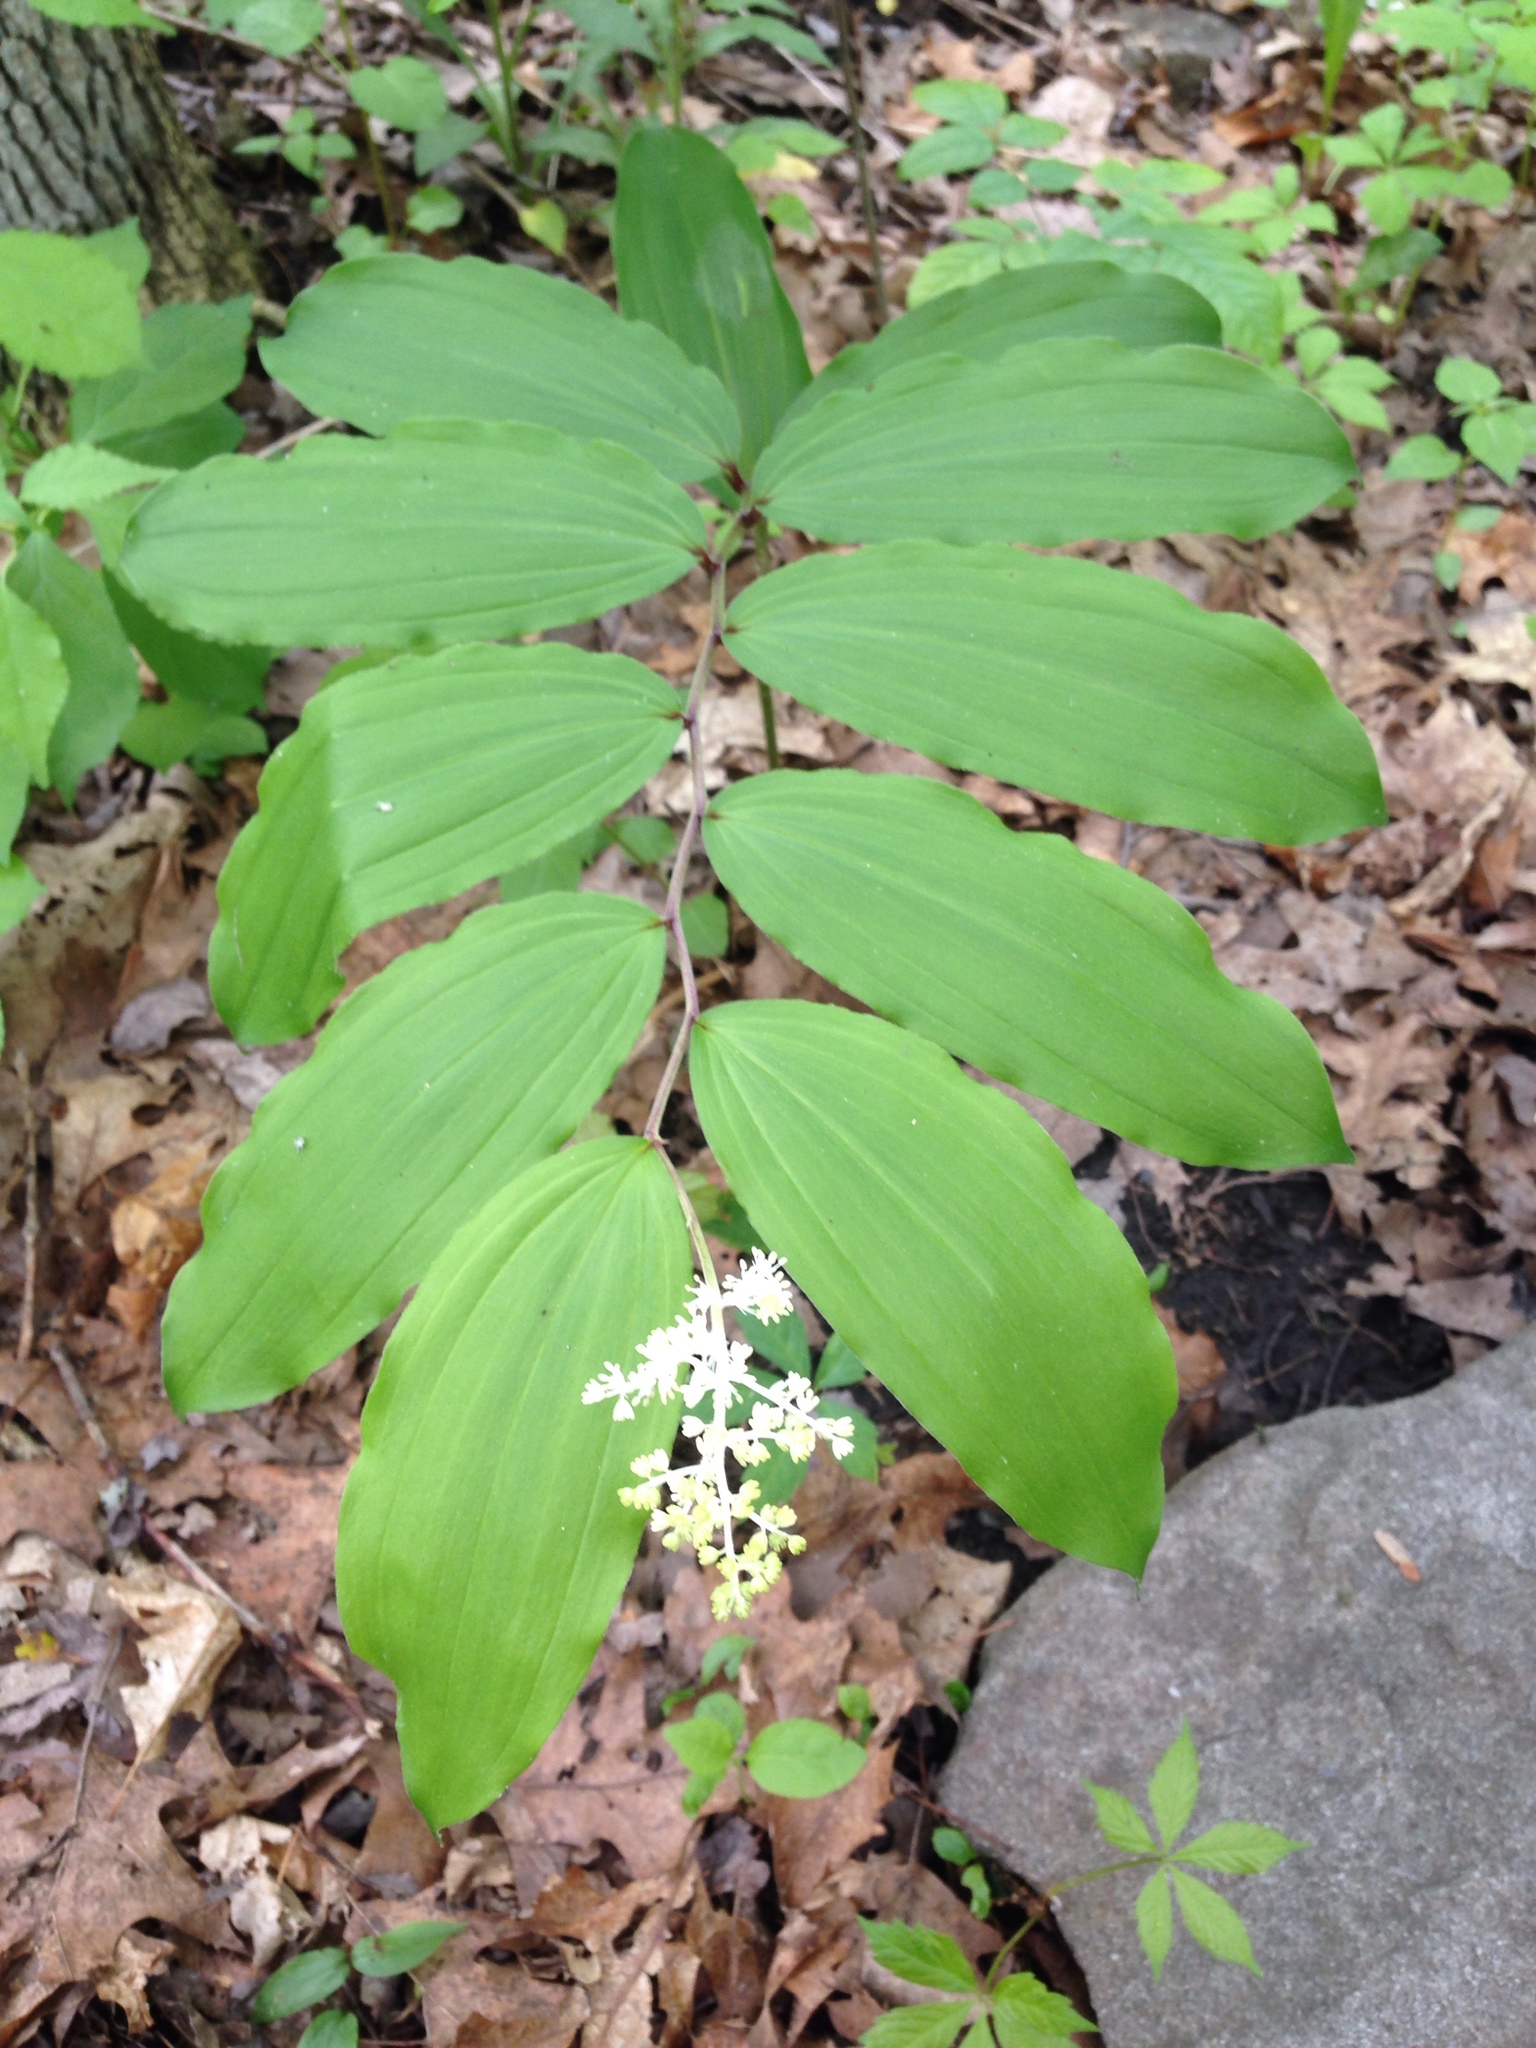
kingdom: Plantae
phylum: Tracheophyta
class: Liliopsida
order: Asparagales
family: Asparagaceae
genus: Maianthemum
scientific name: Maianthemum racemosum
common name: False spikenard
